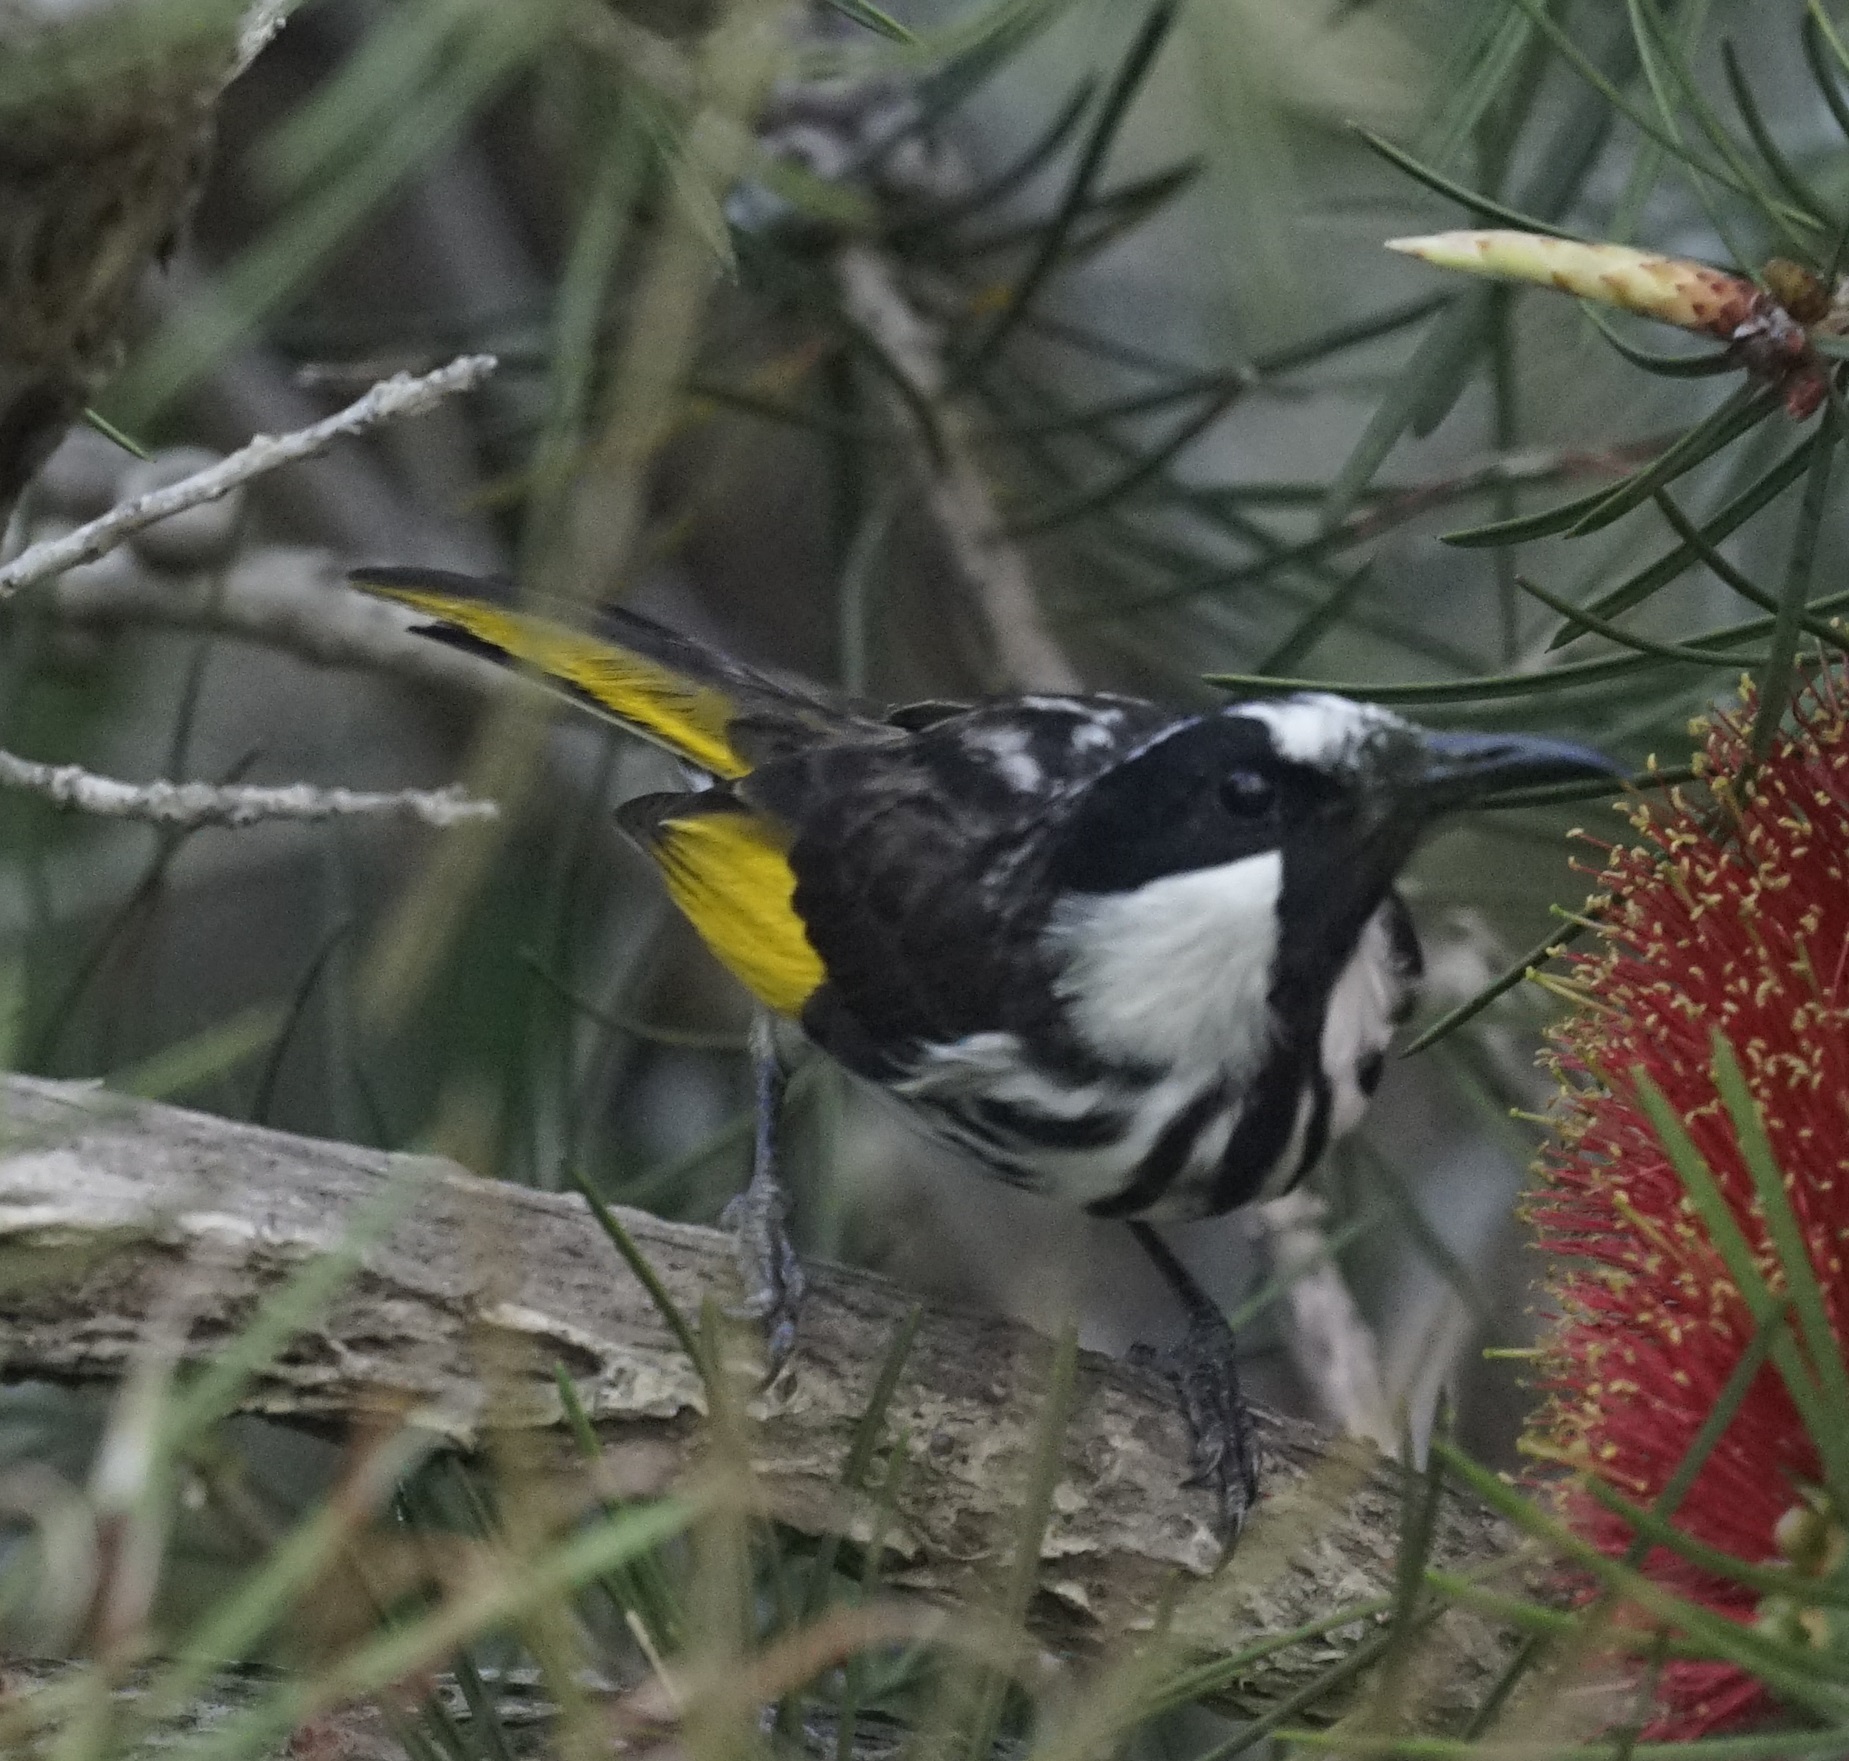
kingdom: Animalia
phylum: Chordata
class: Aves
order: Passeriformes
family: Meliphagidae
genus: Phylidonyris
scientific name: Phylidonyris niger
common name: White-cheeked honeyeater
